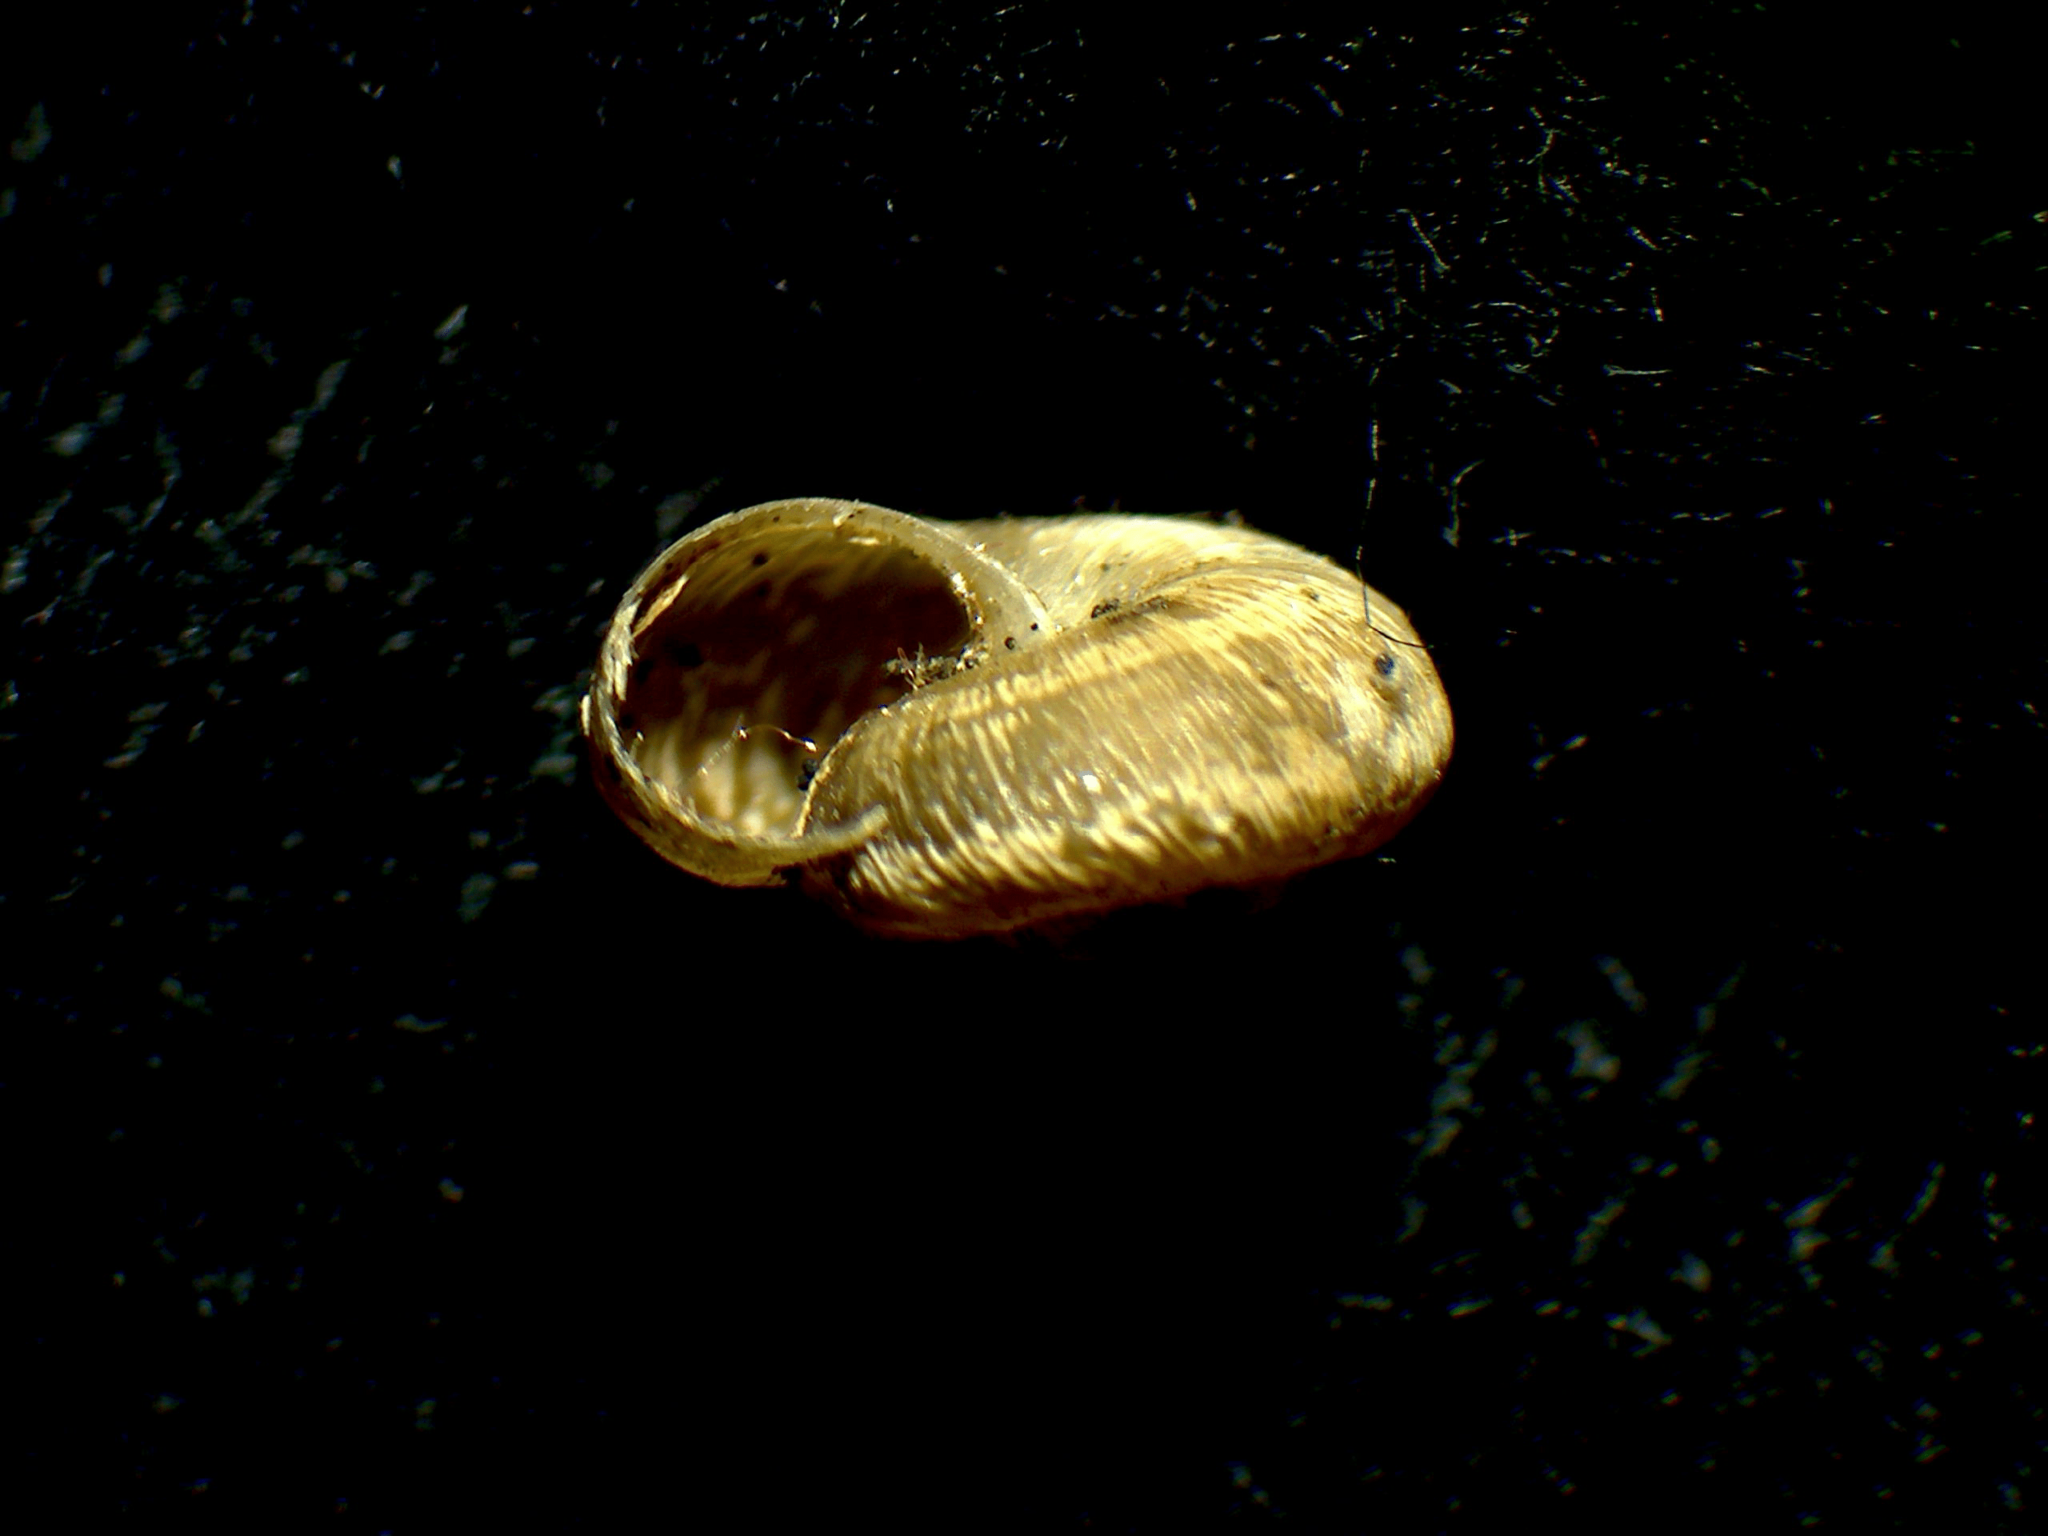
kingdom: Animalia
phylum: Mollusca
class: Gastropoda
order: Stylommatophora
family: Geomitridae
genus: Xerotricha
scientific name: Xerotricha conspurcata
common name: Snail
